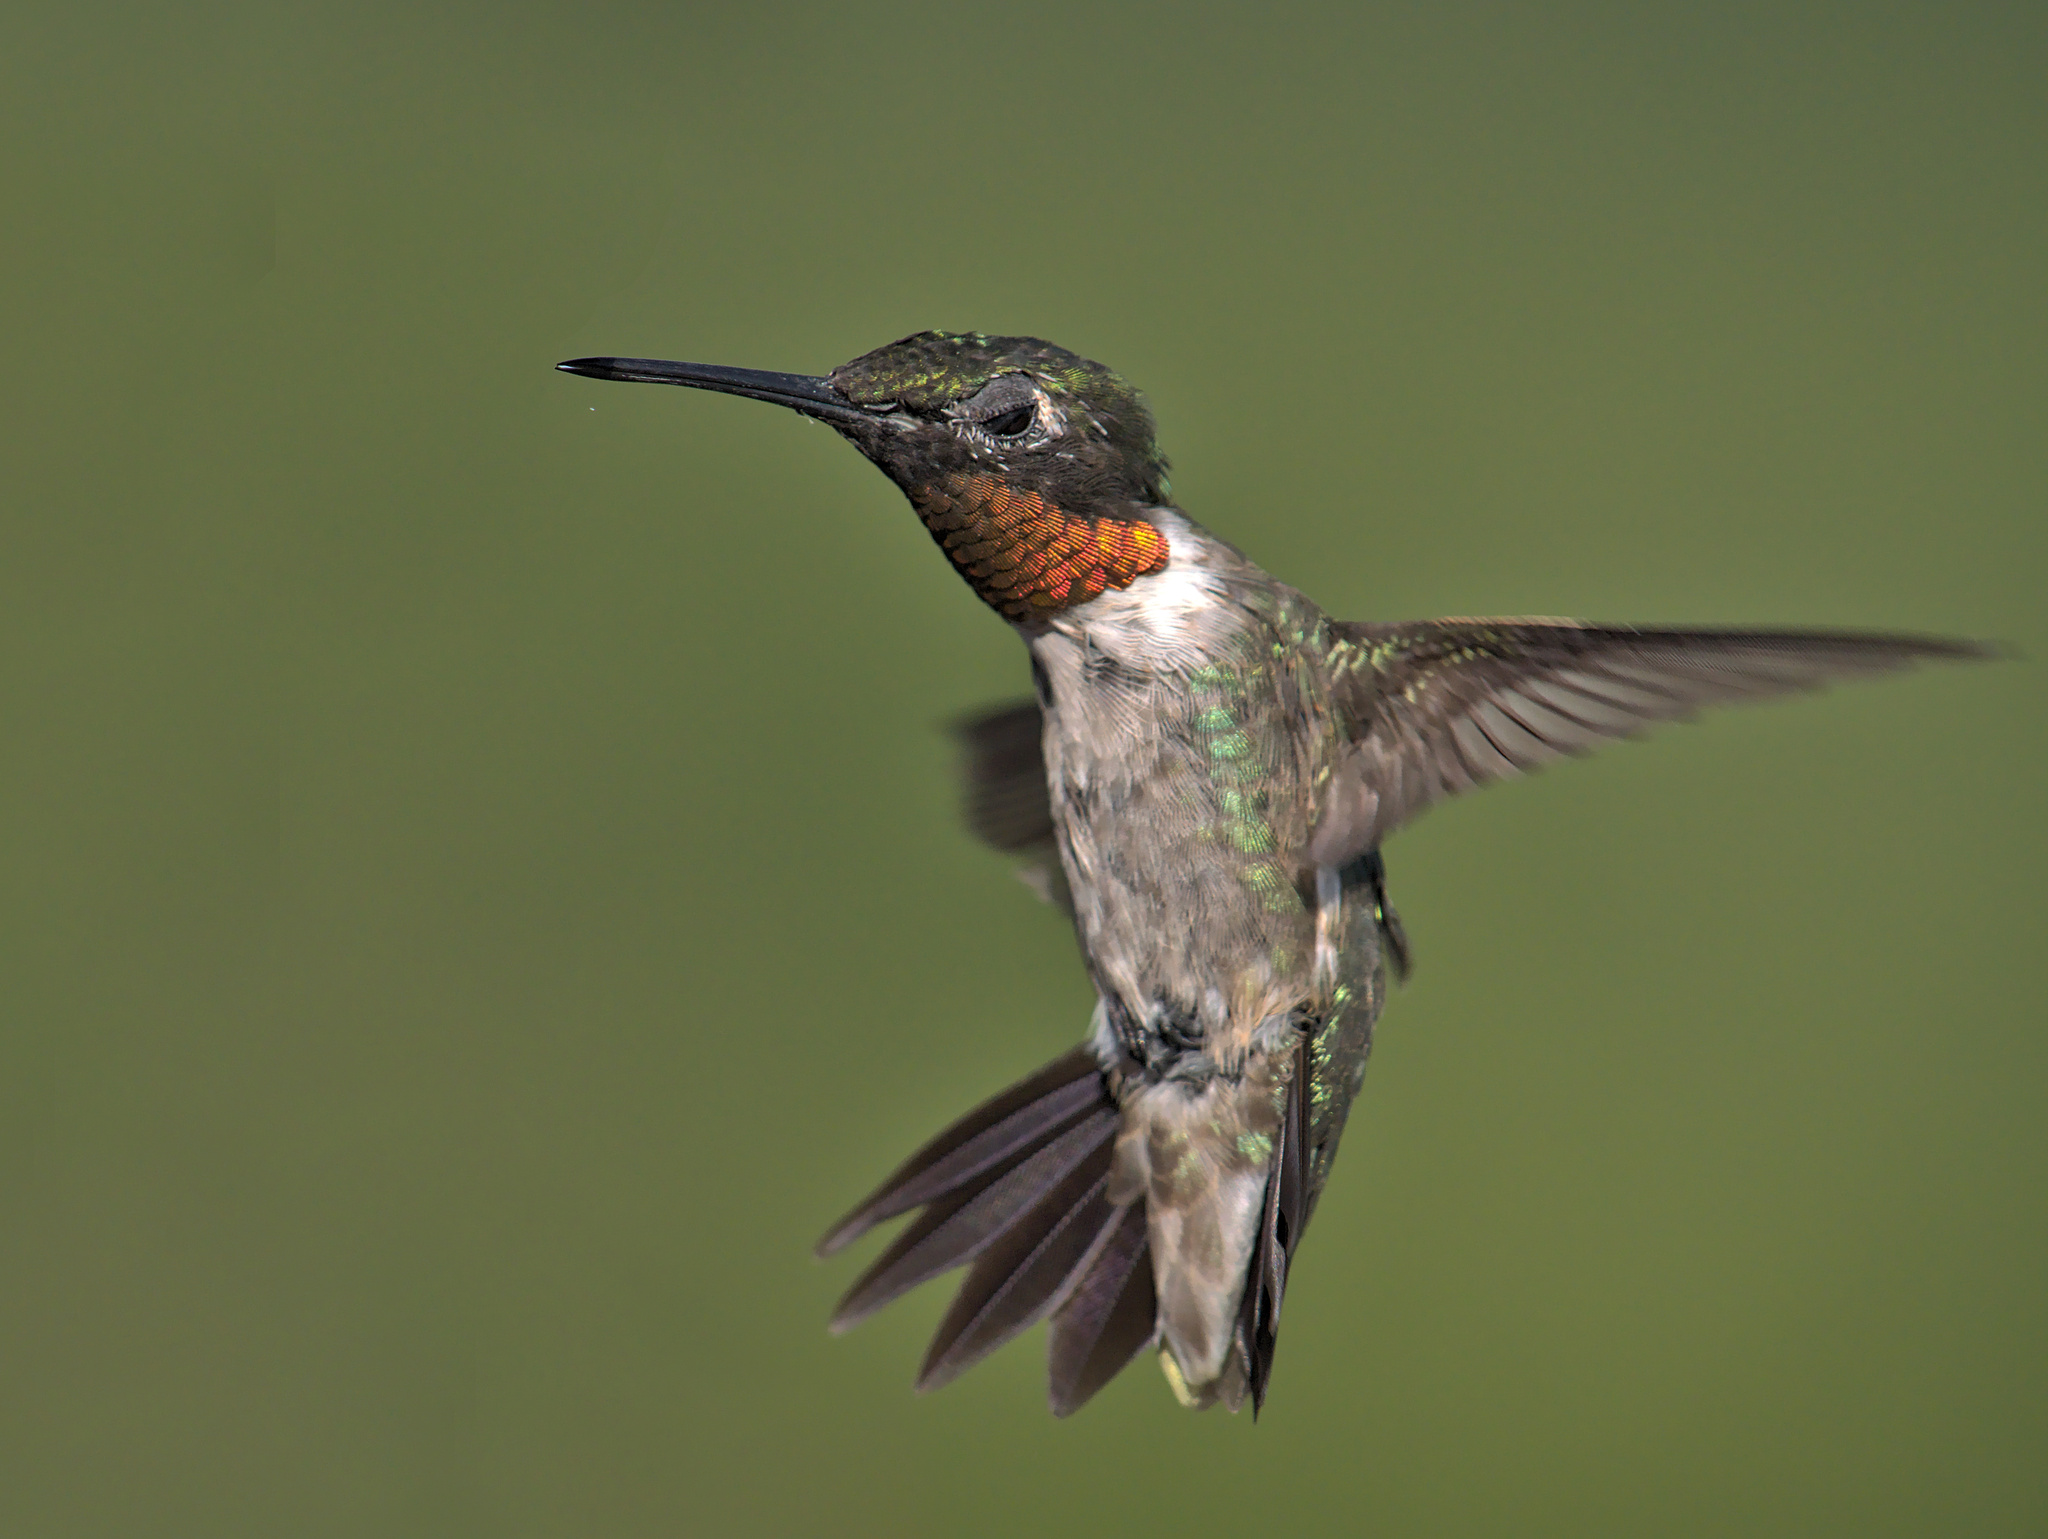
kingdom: Animalia
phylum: Chordata
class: Aves
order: Apodiformes
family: Trochilidae
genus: Archilochus
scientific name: Archilochus colubris
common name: Ruby-throated hummingbird
